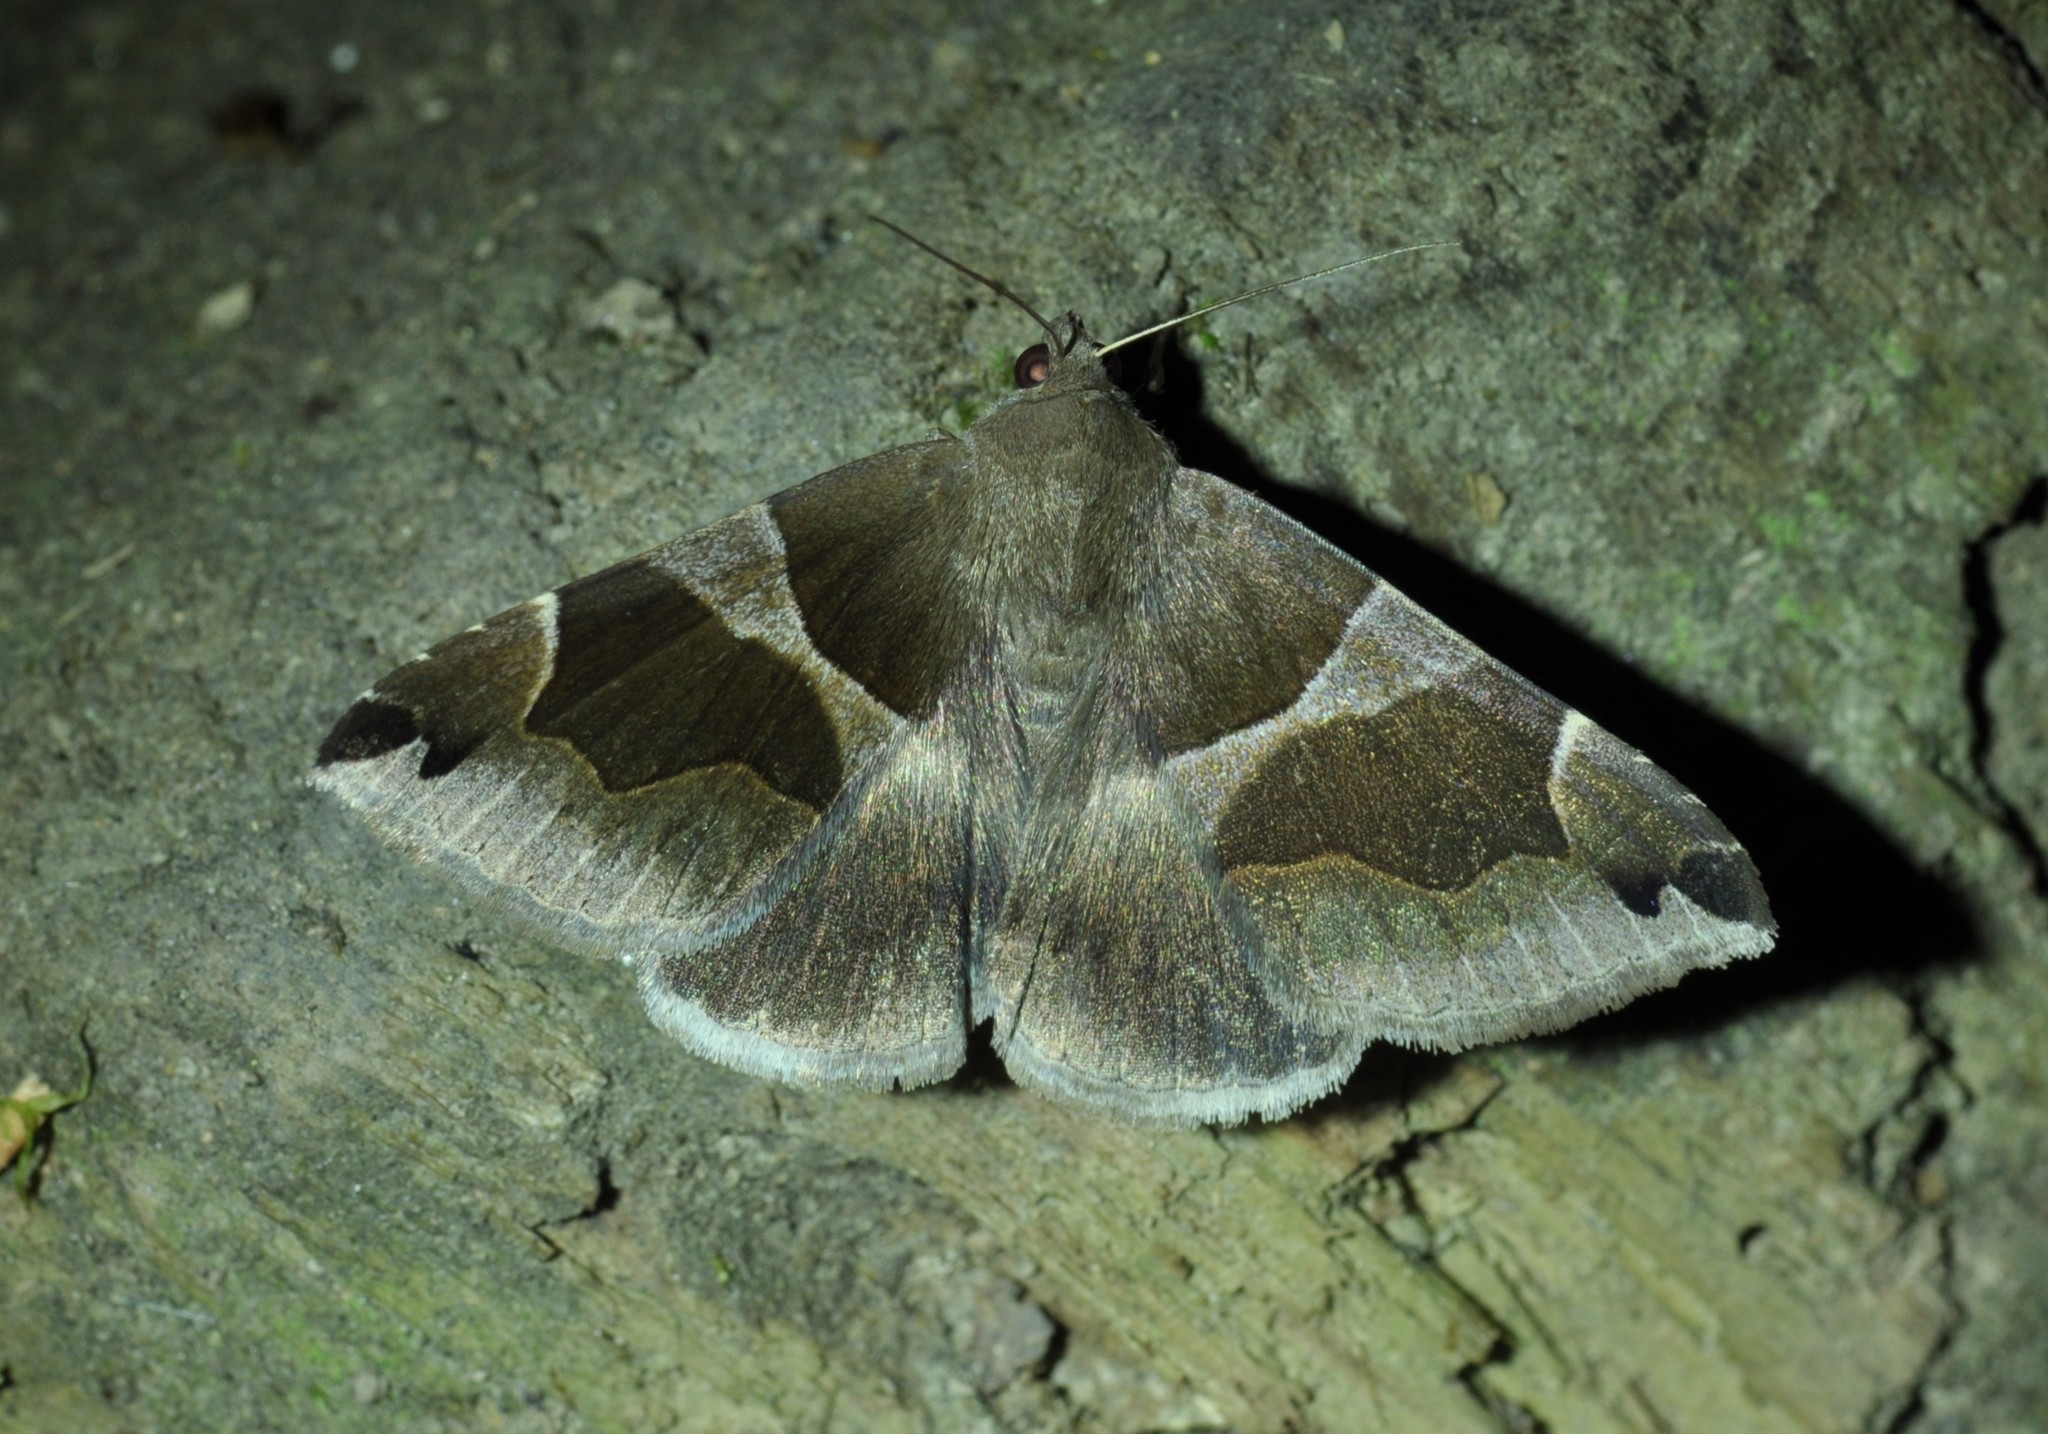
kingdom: Animalia
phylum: Arthropoda
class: Insecta
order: Lepidoptera
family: Erebidae
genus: Dysgonia
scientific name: Dysgonia algira
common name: Passenger
